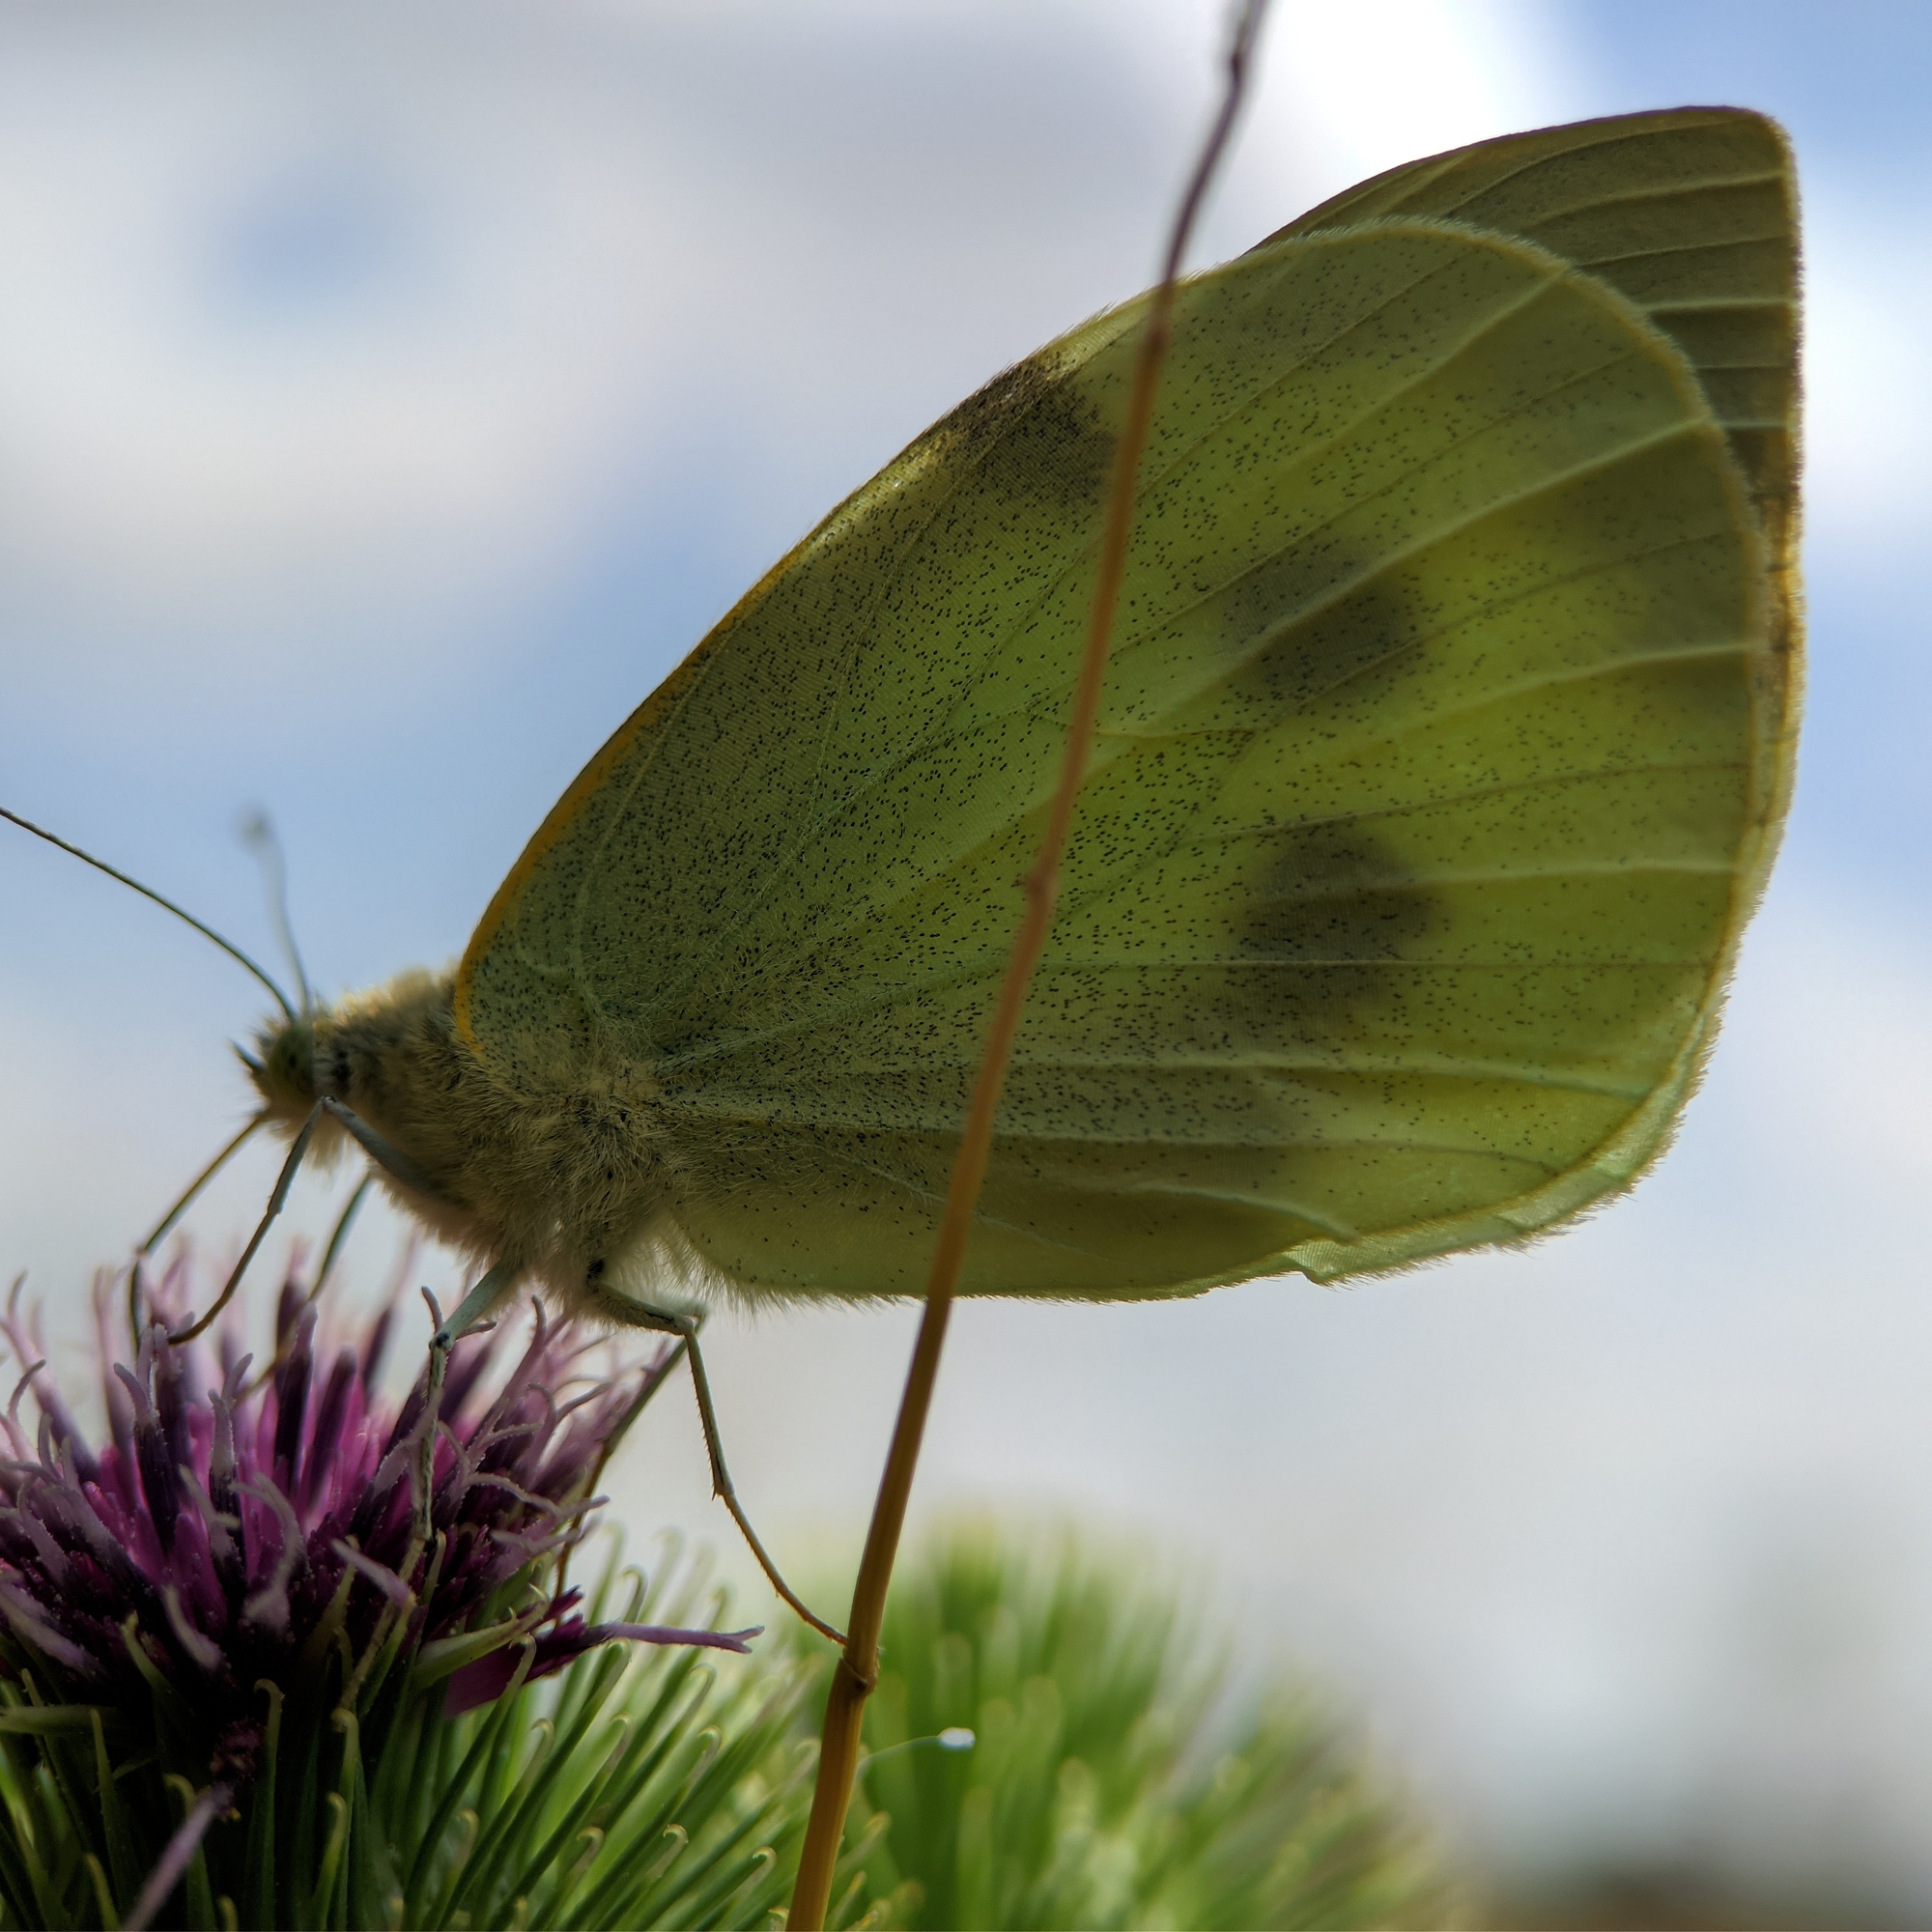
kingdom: Animalia
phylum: Arthropoda
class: Insecta
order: Lepidoptera
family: Pieridae
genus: Pieris
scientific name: Pieris brassicae
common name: Large white
